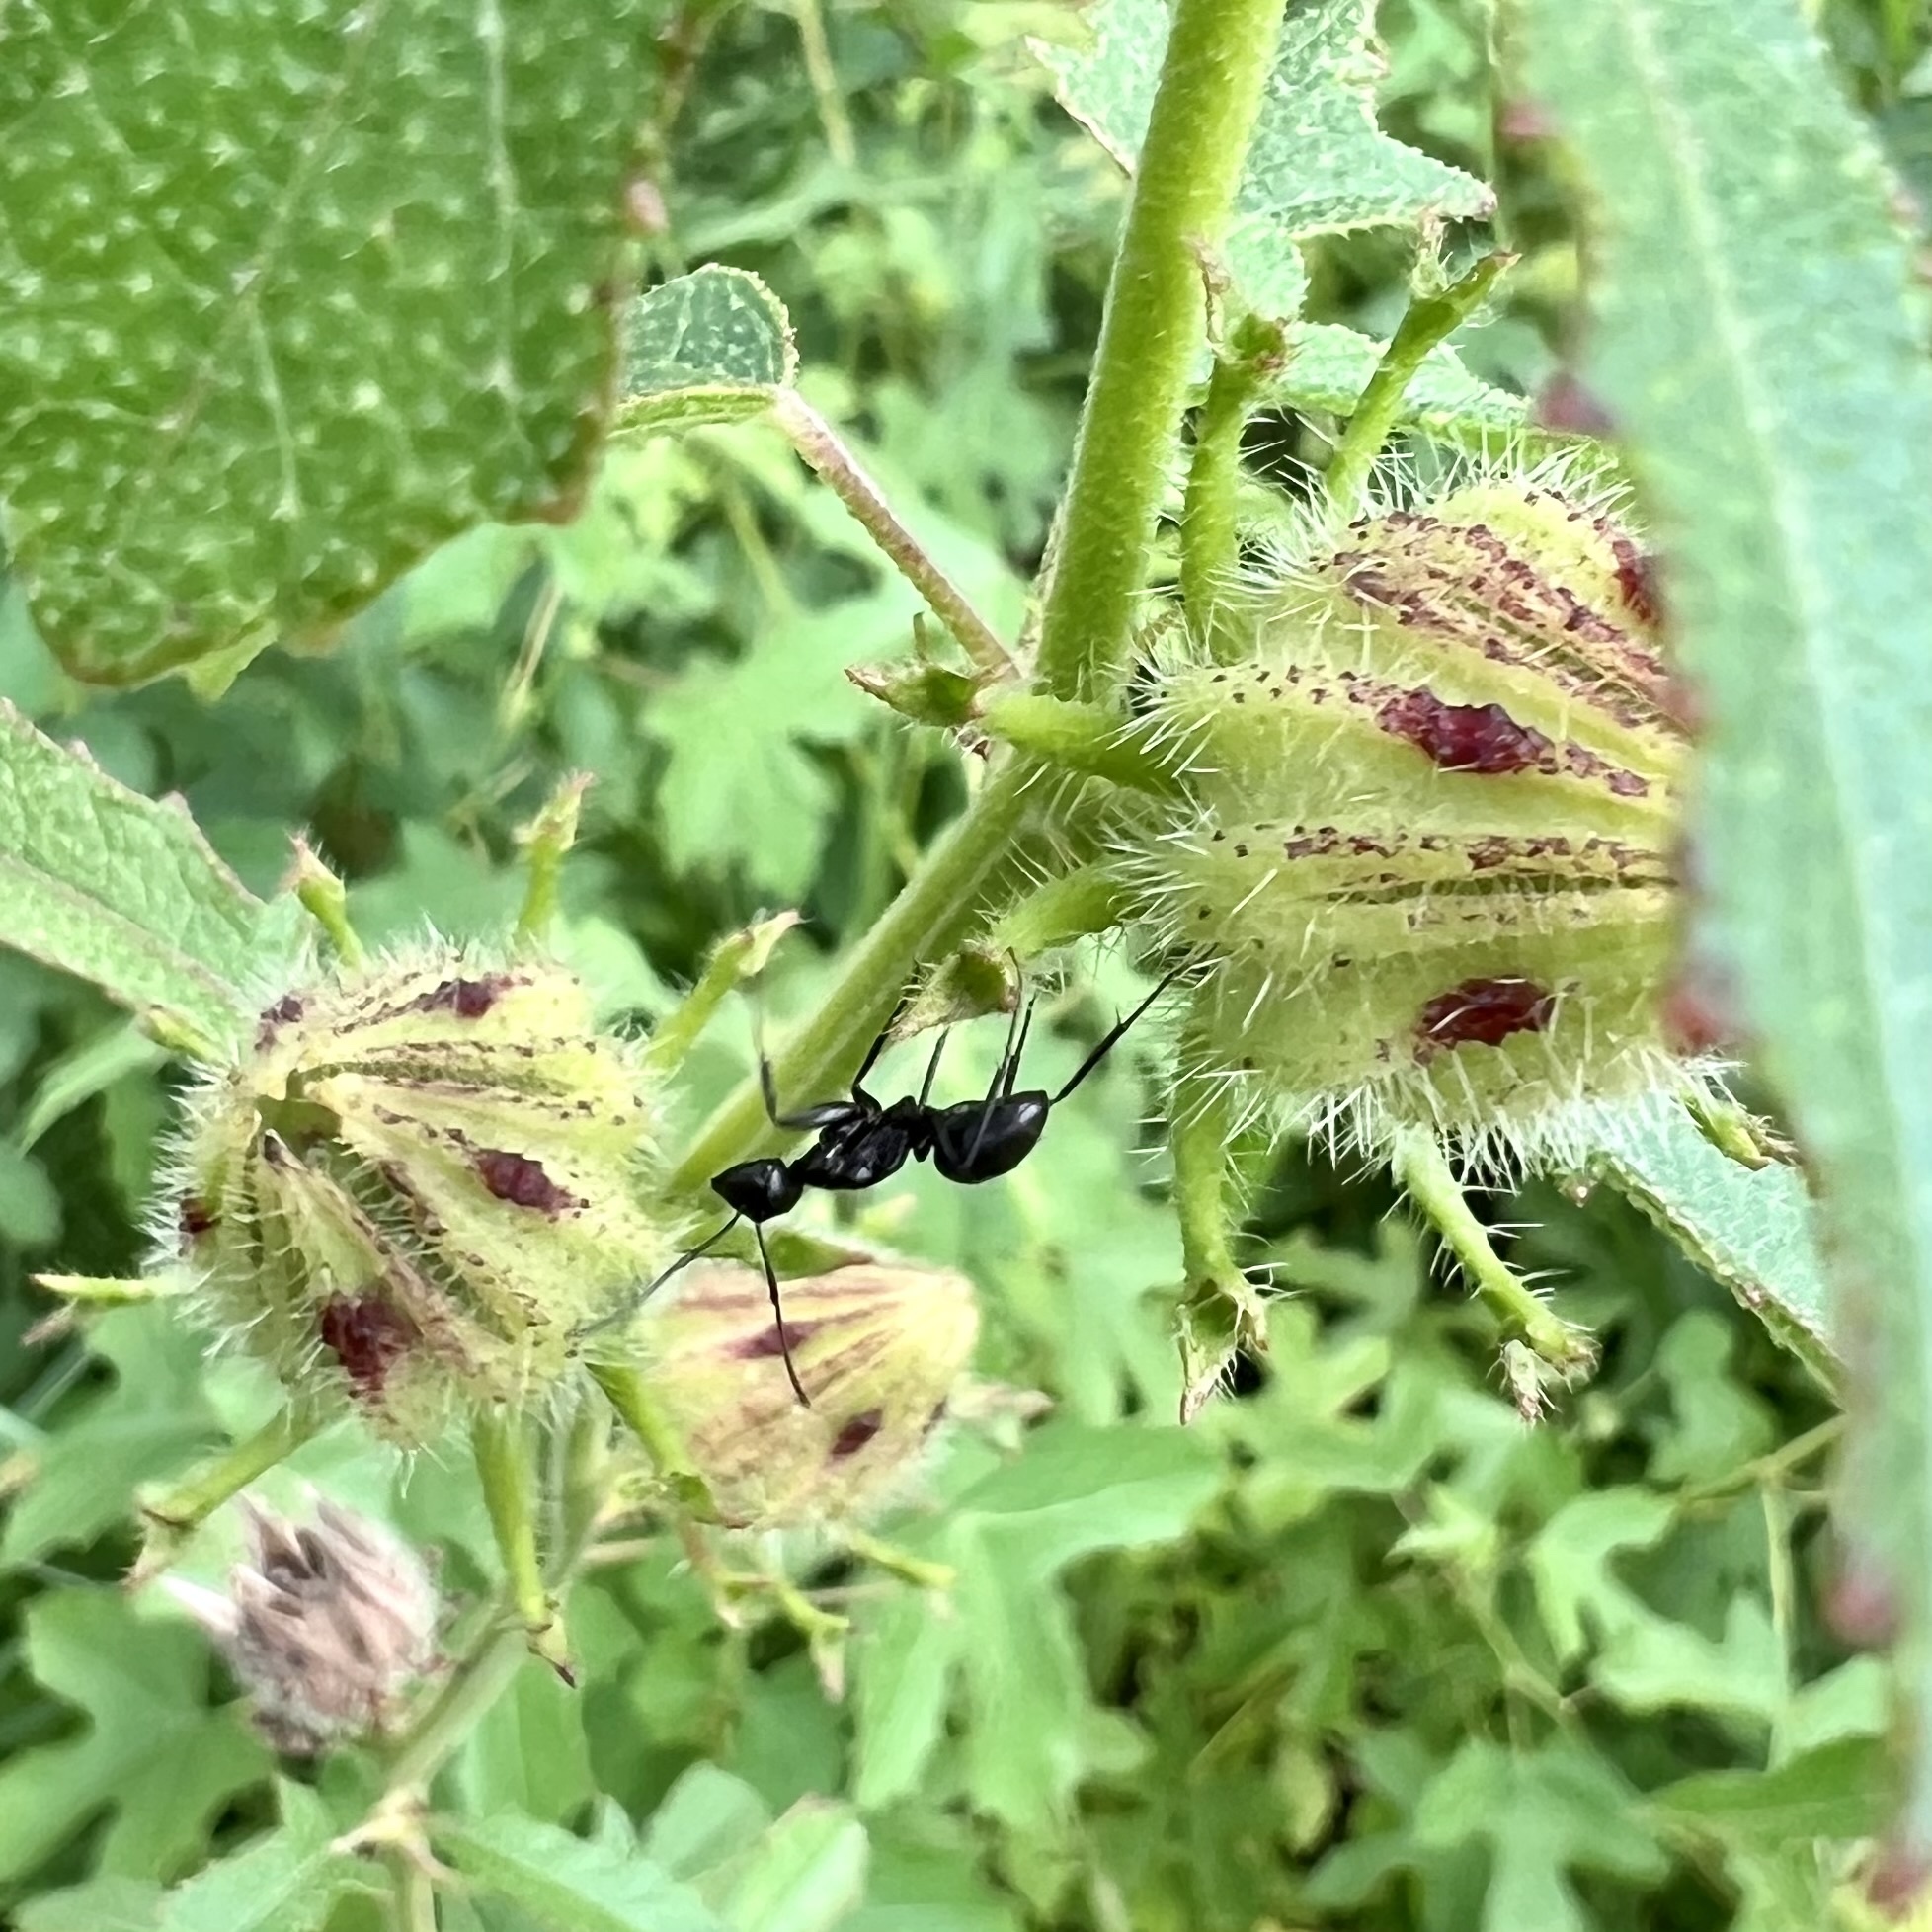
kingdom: Animalia
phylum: Arthropoda
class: Insecta
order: Hymenoptera
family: Formicidae
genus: Camponotus
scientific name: Camponotus pennsylvanicus
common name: Black carpenter ant
